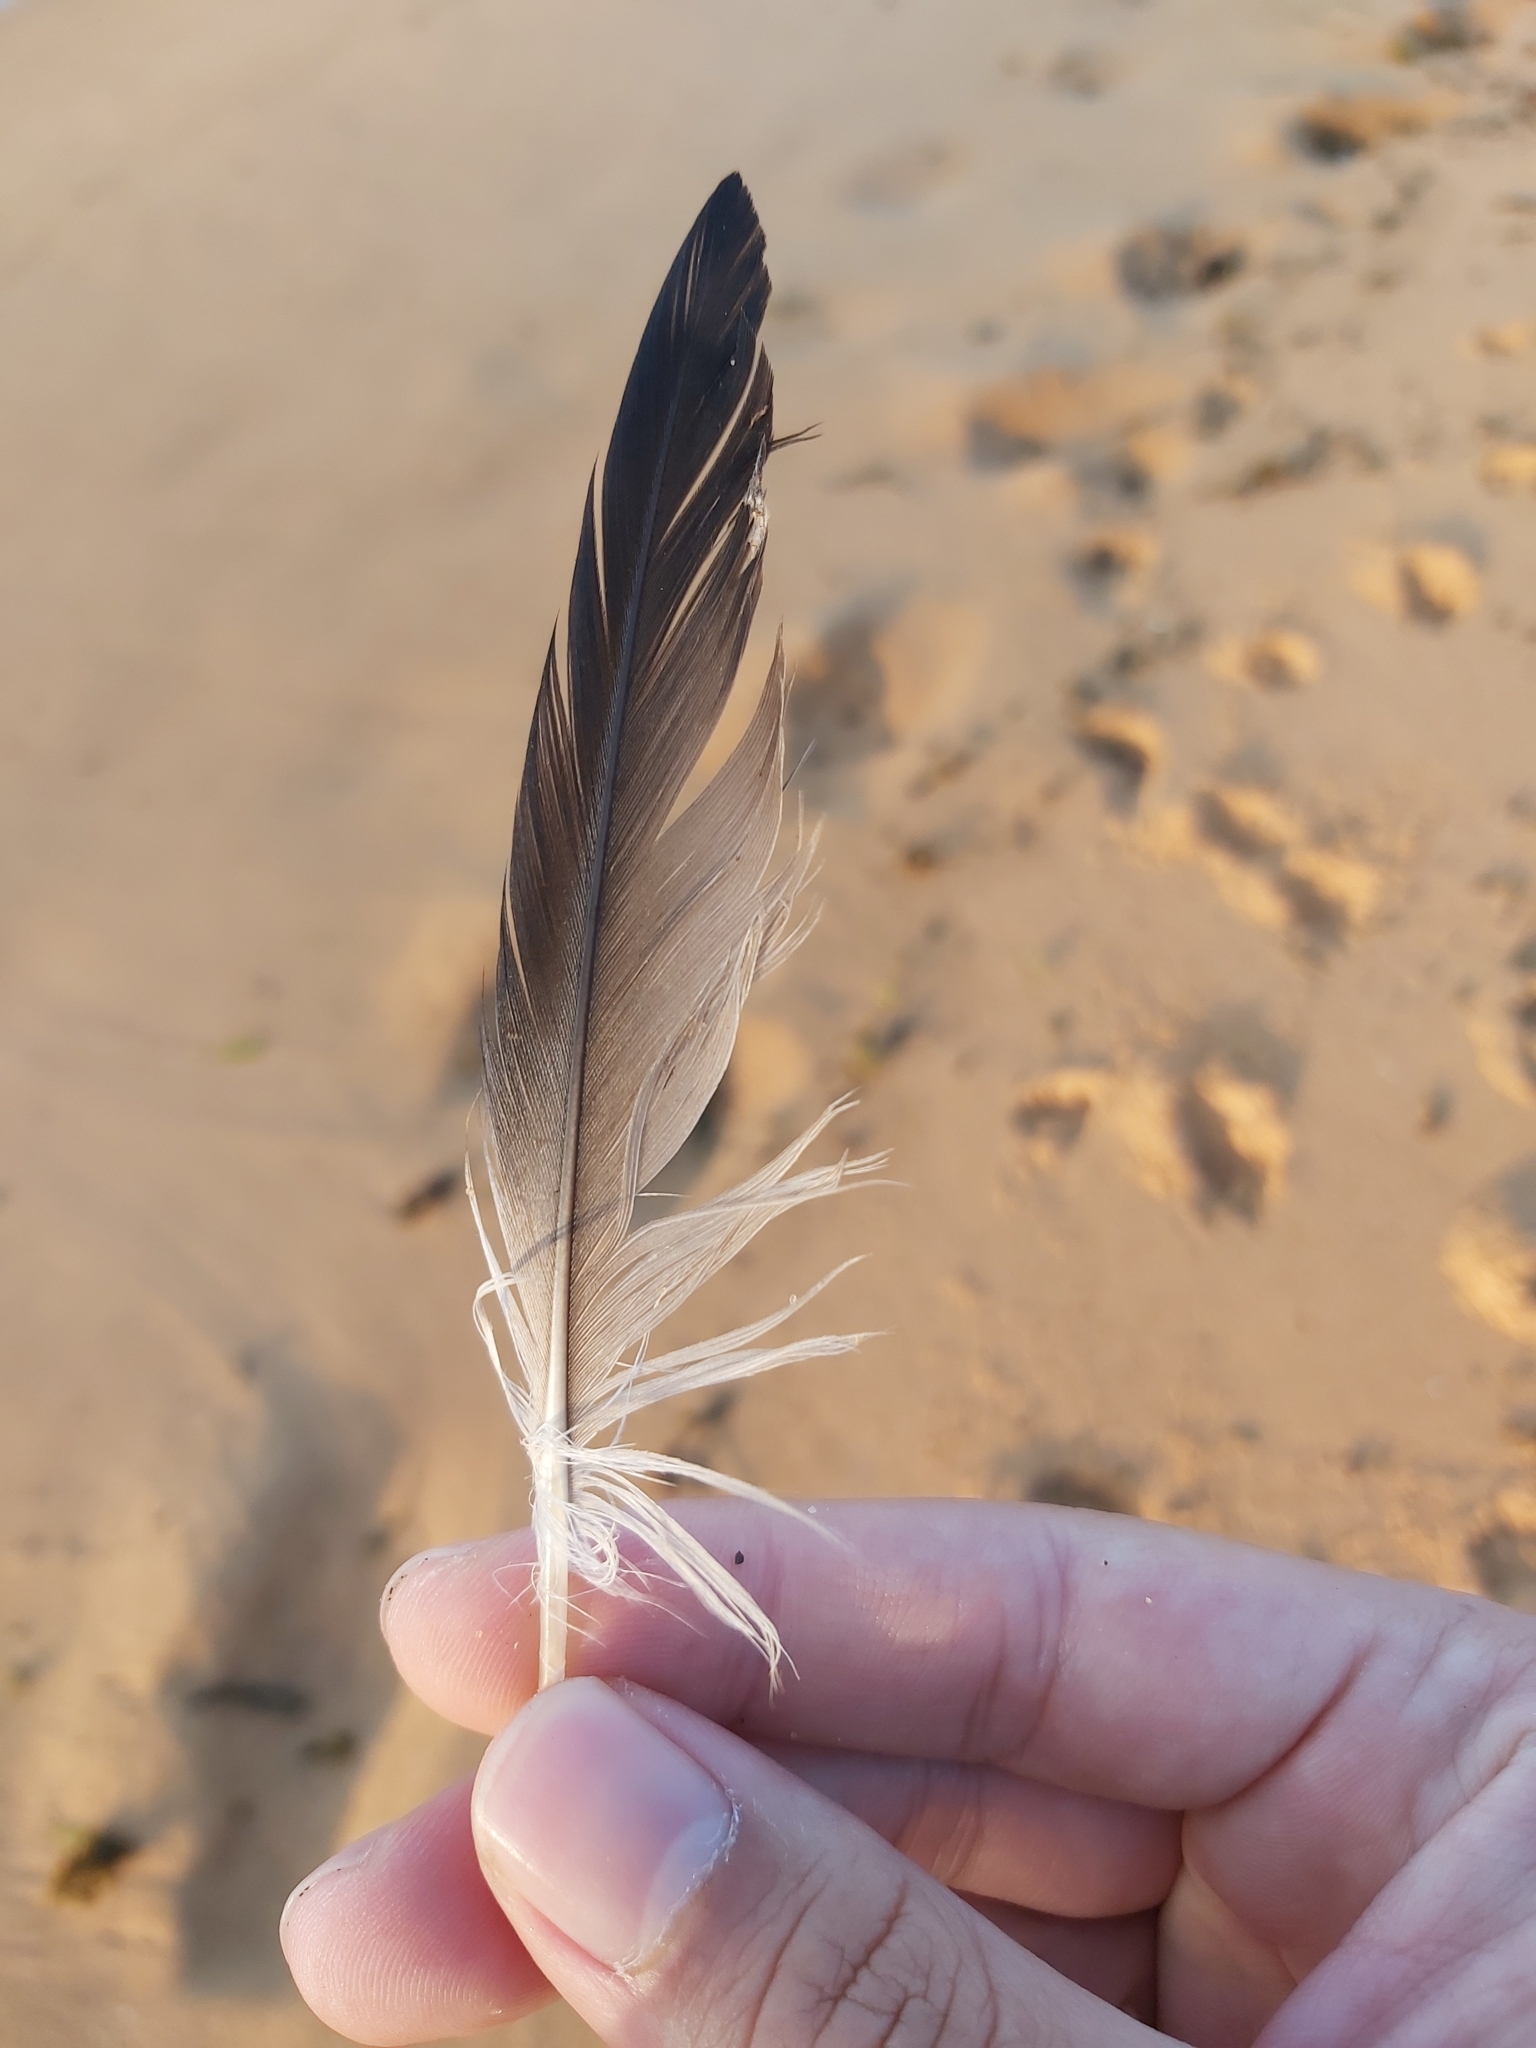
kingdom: Animalia
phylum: Chordata
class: Aves
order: Suliformes
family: Sulidae
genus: Morus
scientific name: Morus serrator
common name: Australasian gannet
